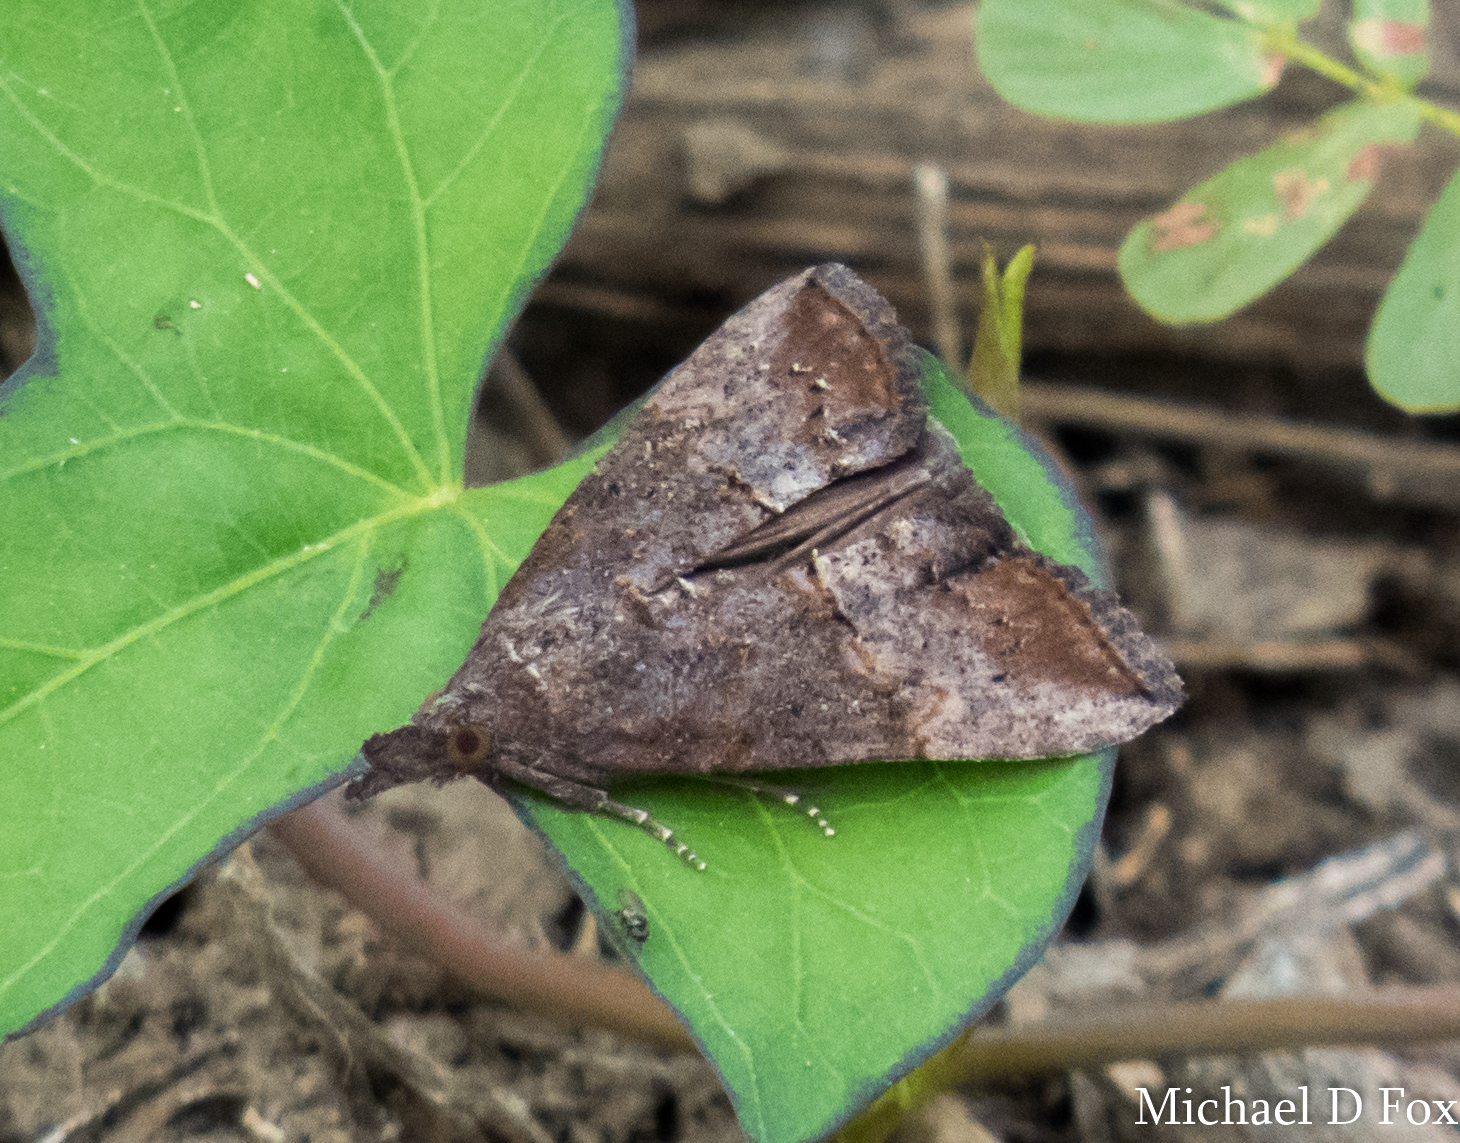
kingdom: Animalia
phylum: Arthropoda
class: Insecta
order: Lepidoptera
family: Erebidae
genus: Hypena
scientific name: Hypena scabra
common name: Green cloverworm
